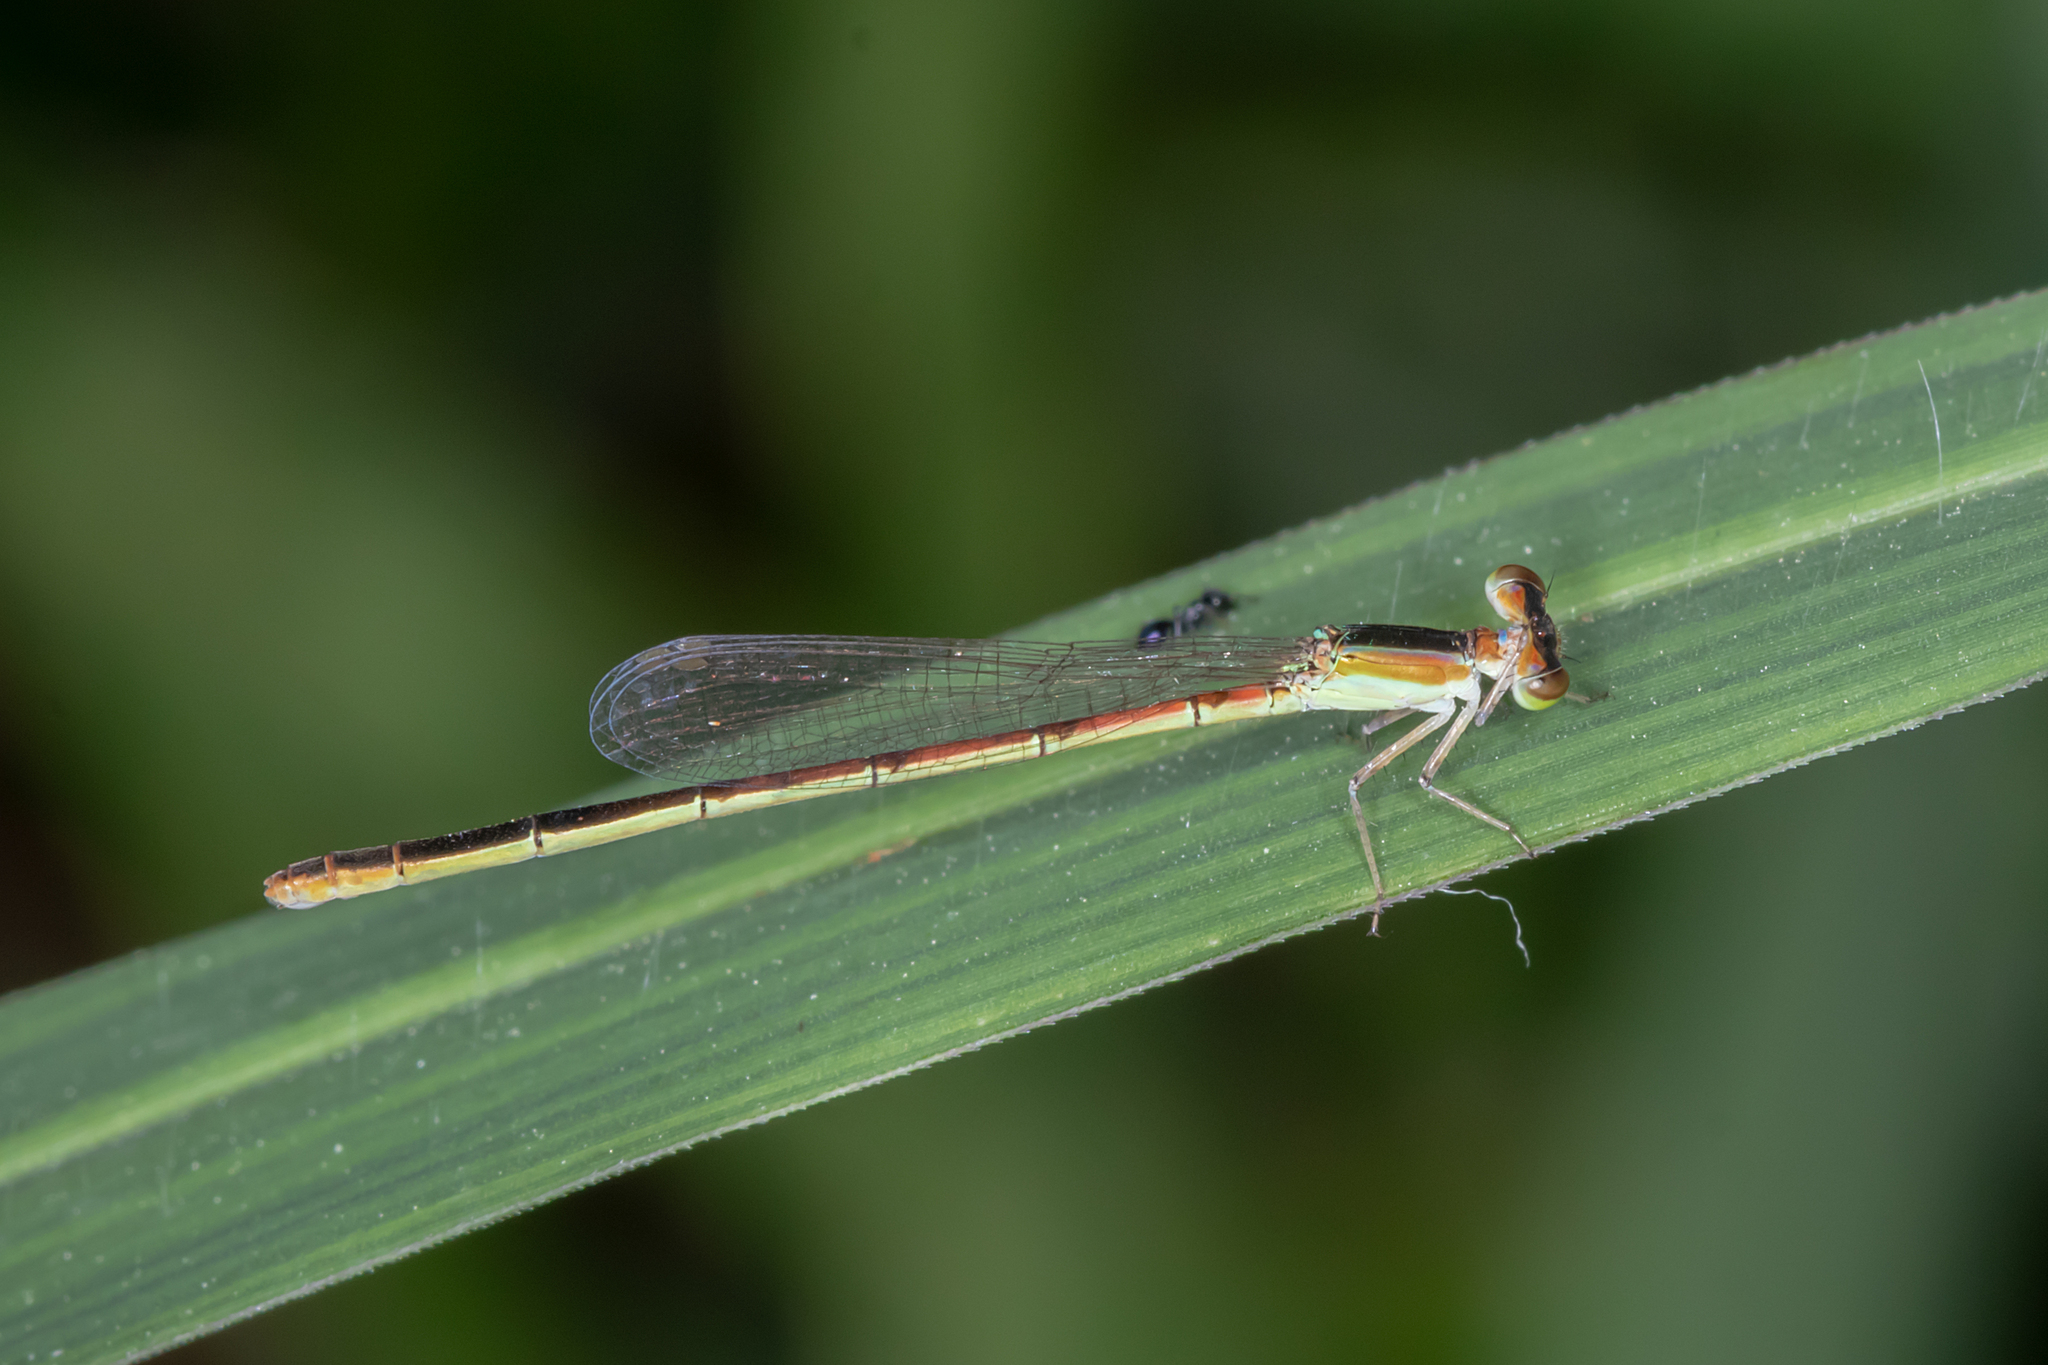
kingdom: Animalia
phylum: Arthropoda
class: Insecta
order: Odonata
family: Coenagrionidae
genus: Agriocnemis
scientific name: Agriocnemis pygmaea
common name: Pygmy wisp
